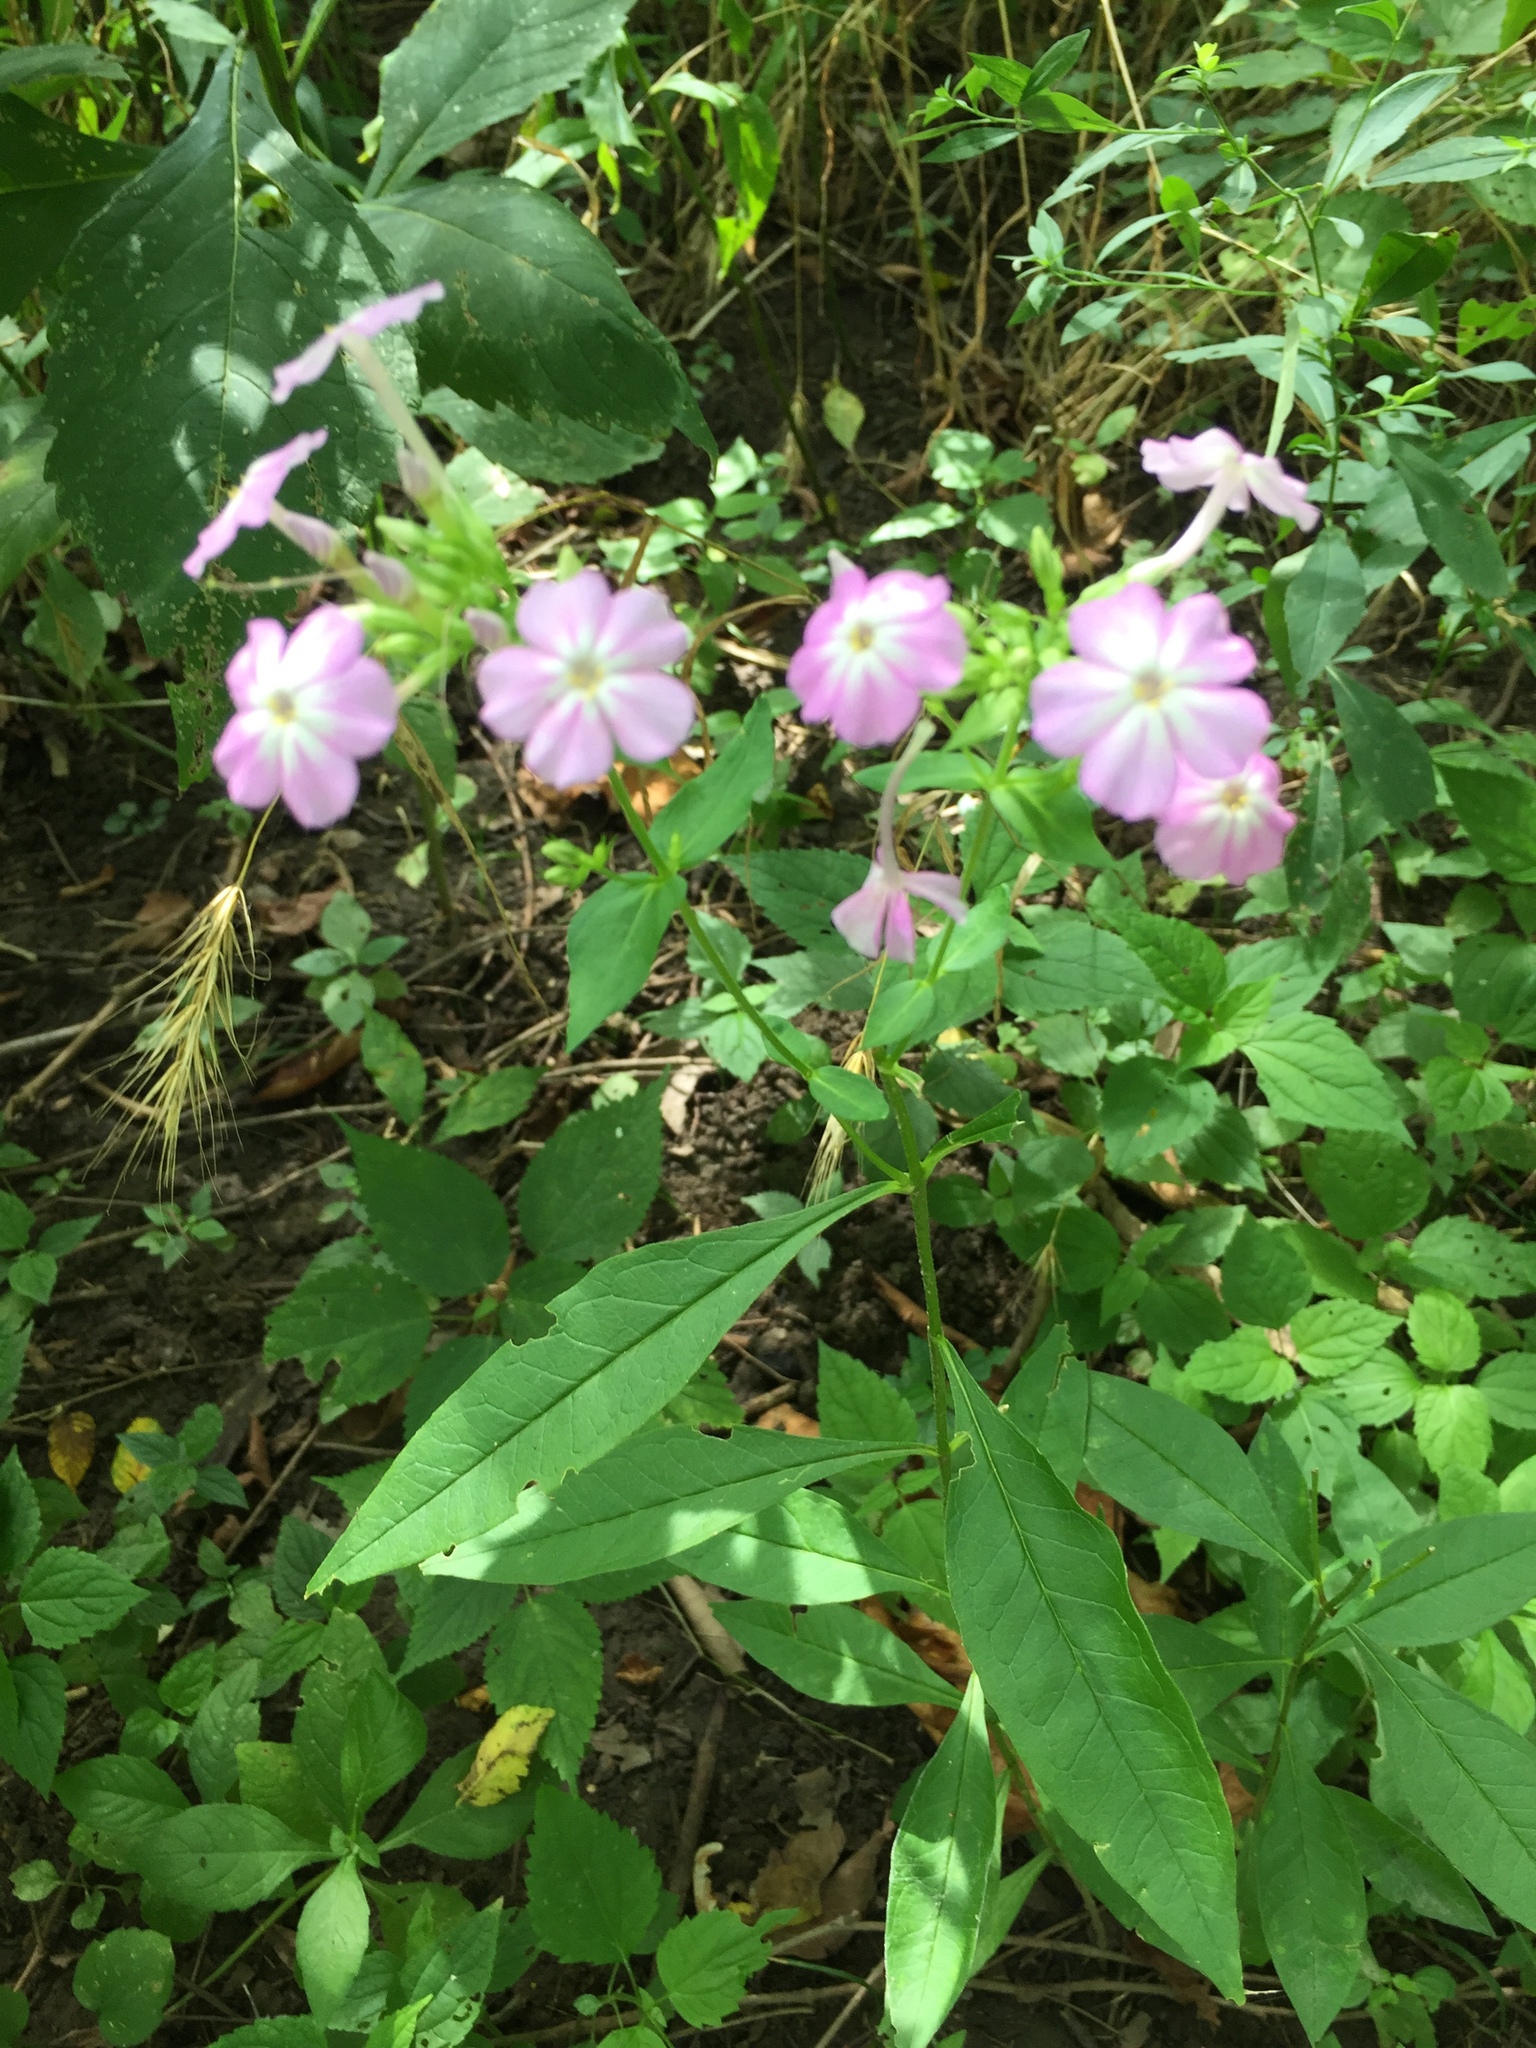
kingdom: Plantae
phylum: Tracheophyta
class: Magnoliopsida
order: Ericales
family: Polemoniaceae
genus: Phlox
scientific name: Phlox paniculata
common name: Fall phlox
